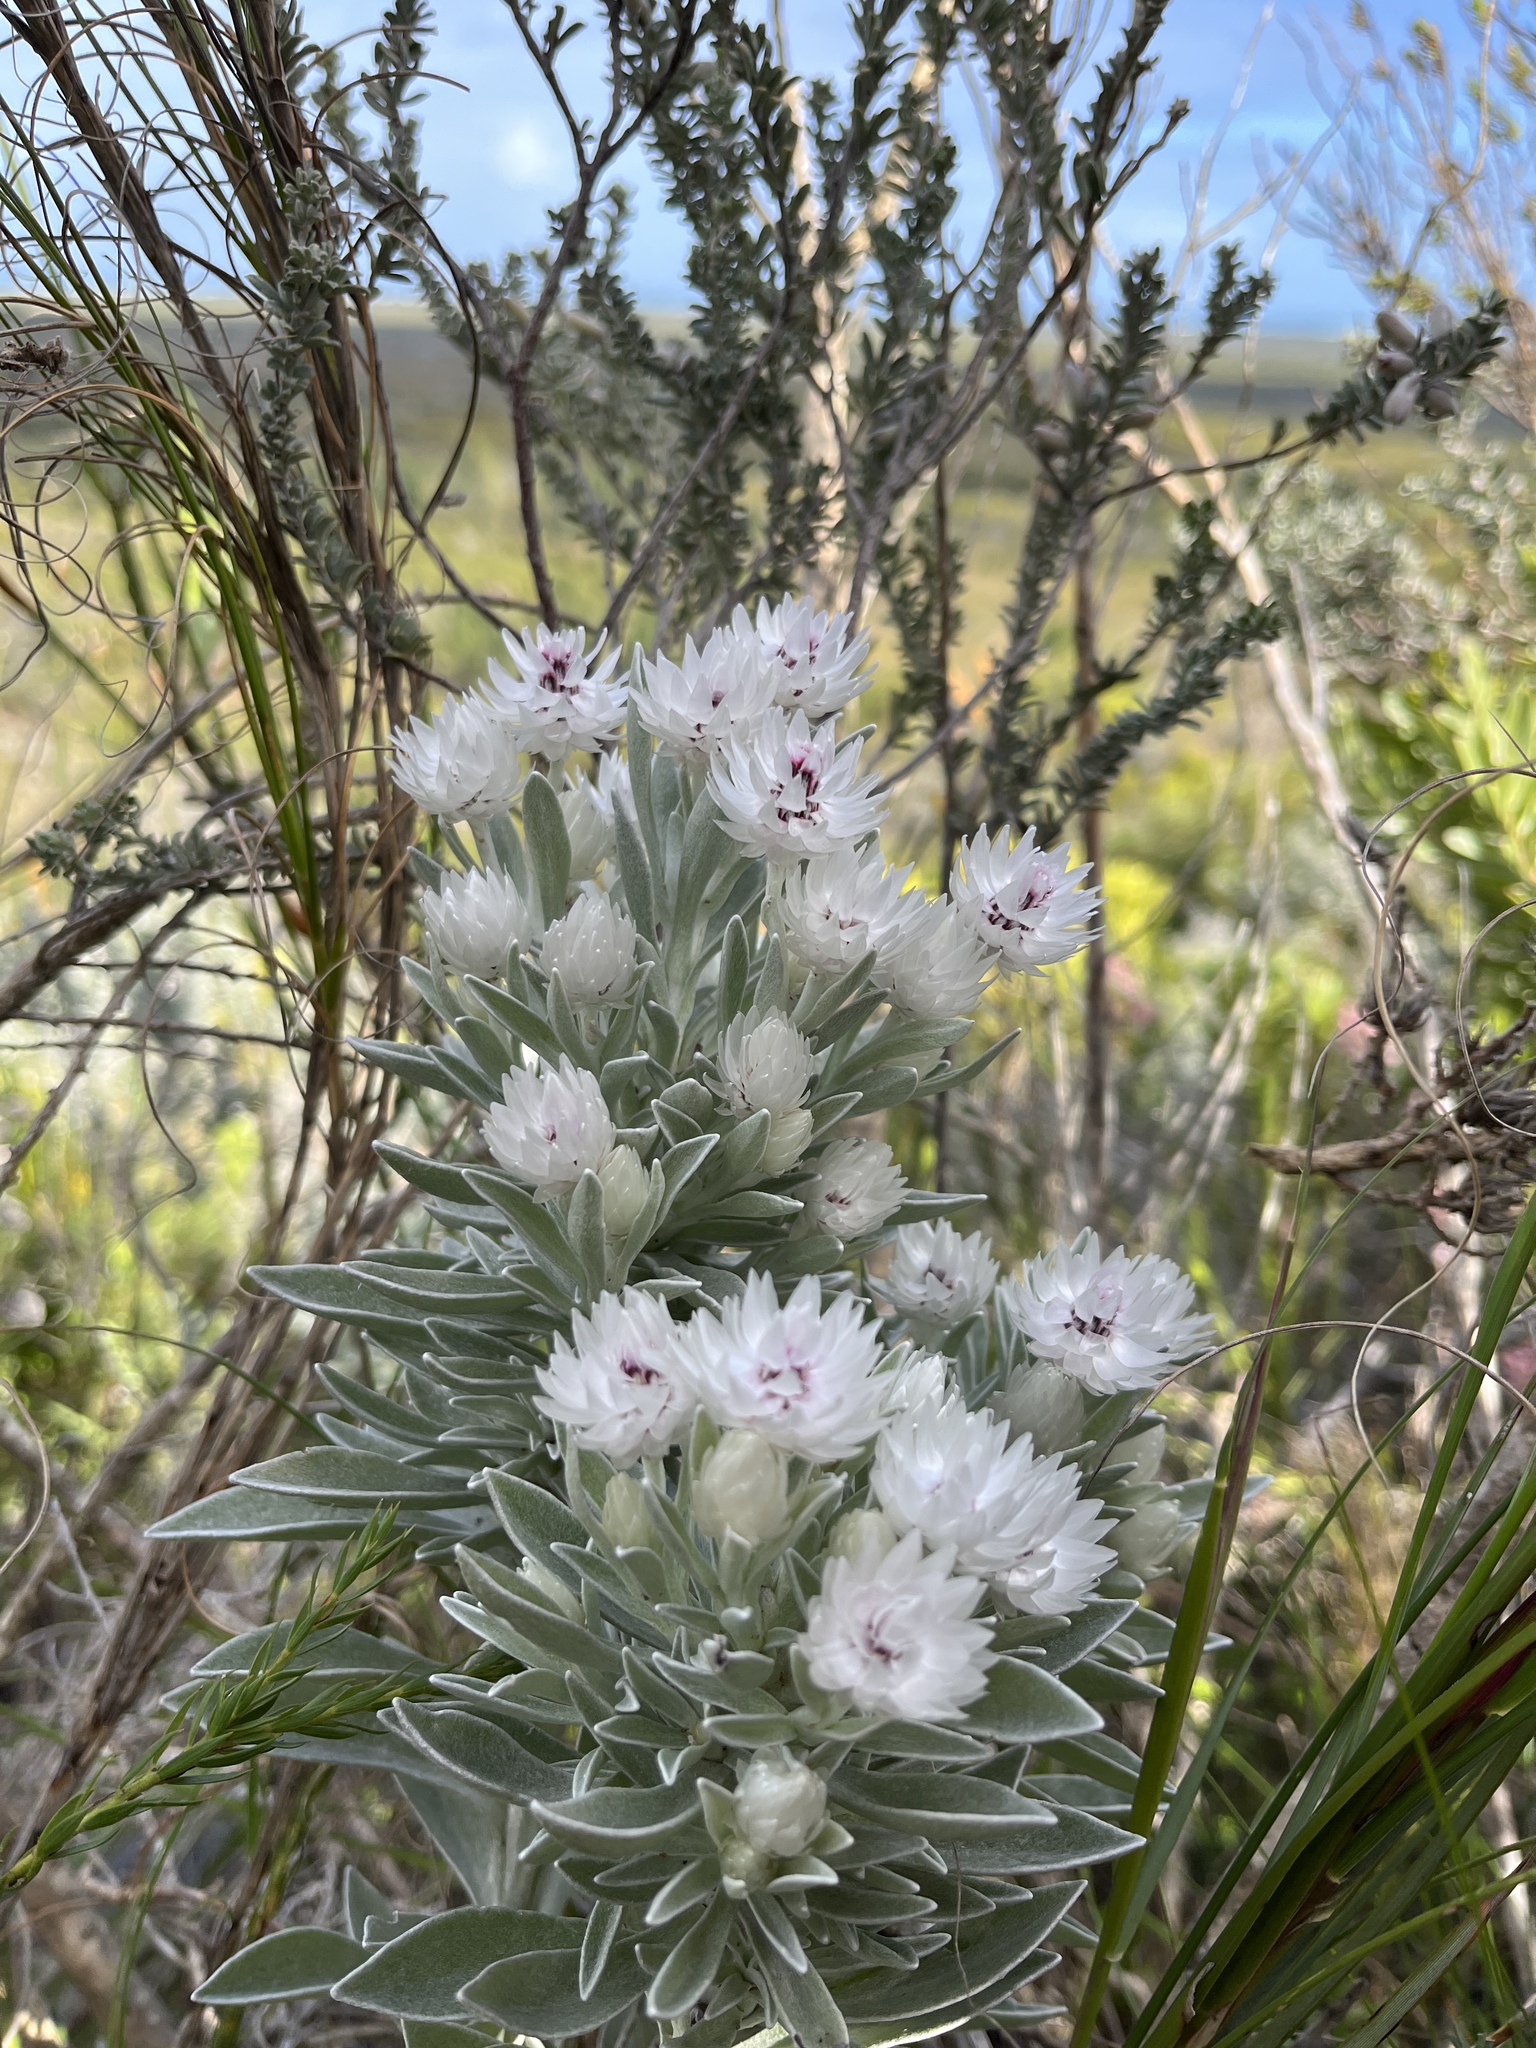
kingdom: Plantae
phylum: Tracheophyta
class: Magnoliopsida
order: Asterales
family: Asteraceae
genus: Syncarpha
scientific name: Syncarpha argyropsis
